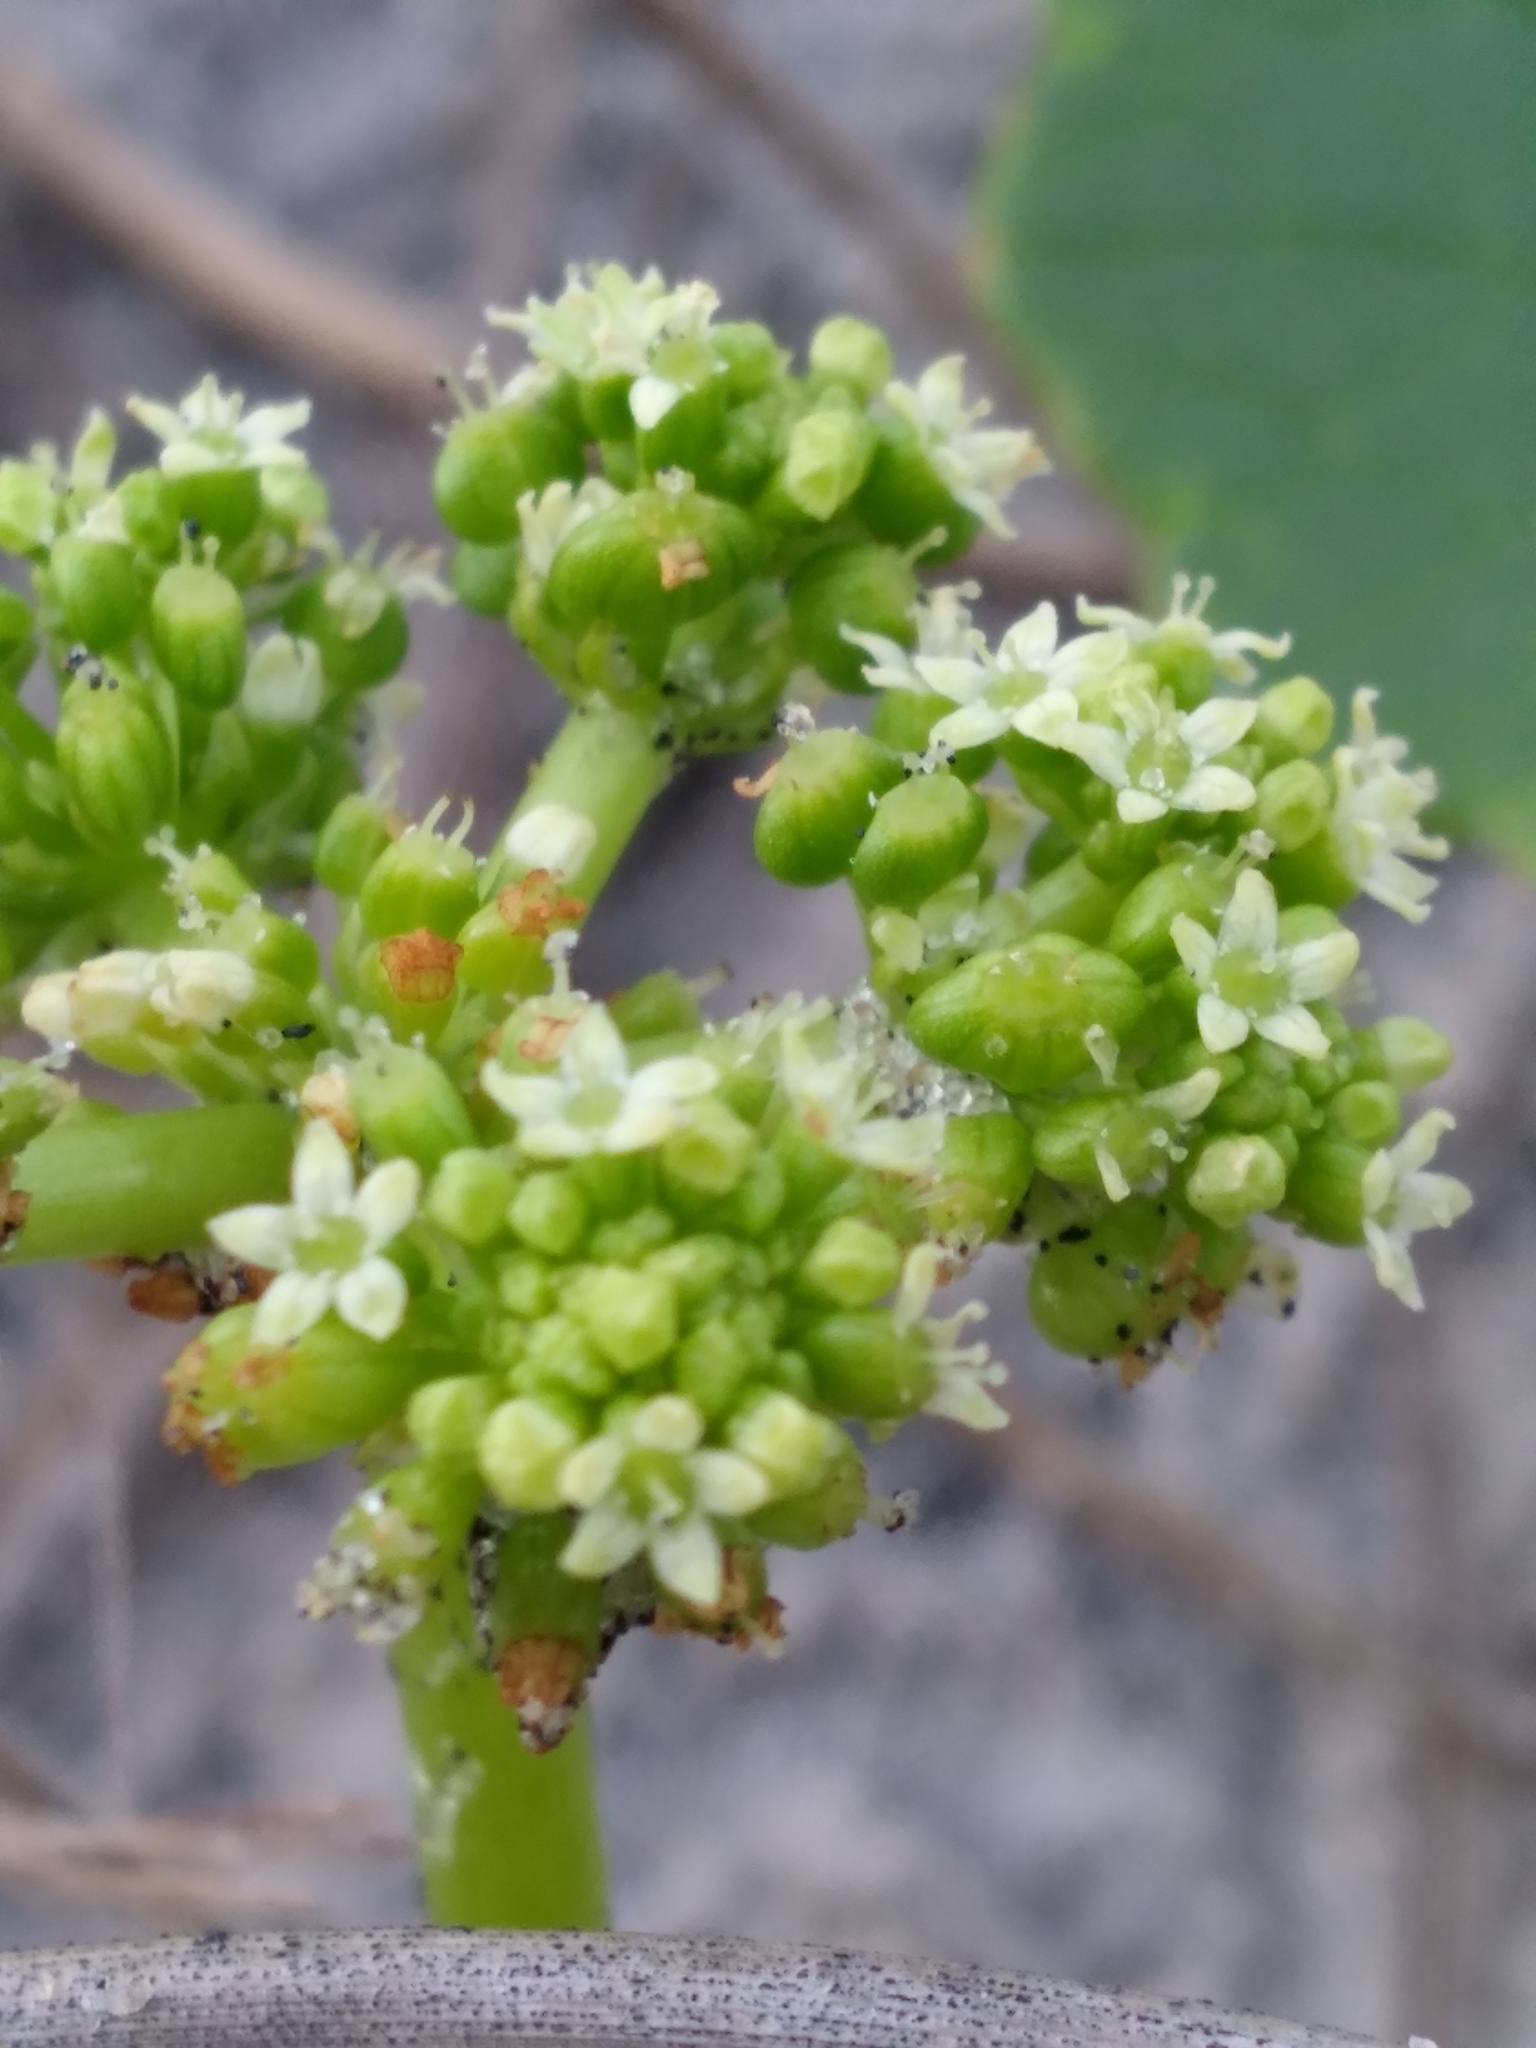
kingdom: Plantae
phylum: Tracheophyta
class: Magnoliopsida
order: Apiales
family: Araliaceae
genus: Hydrocotyle
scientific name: Hydrocotyle bonariensis
